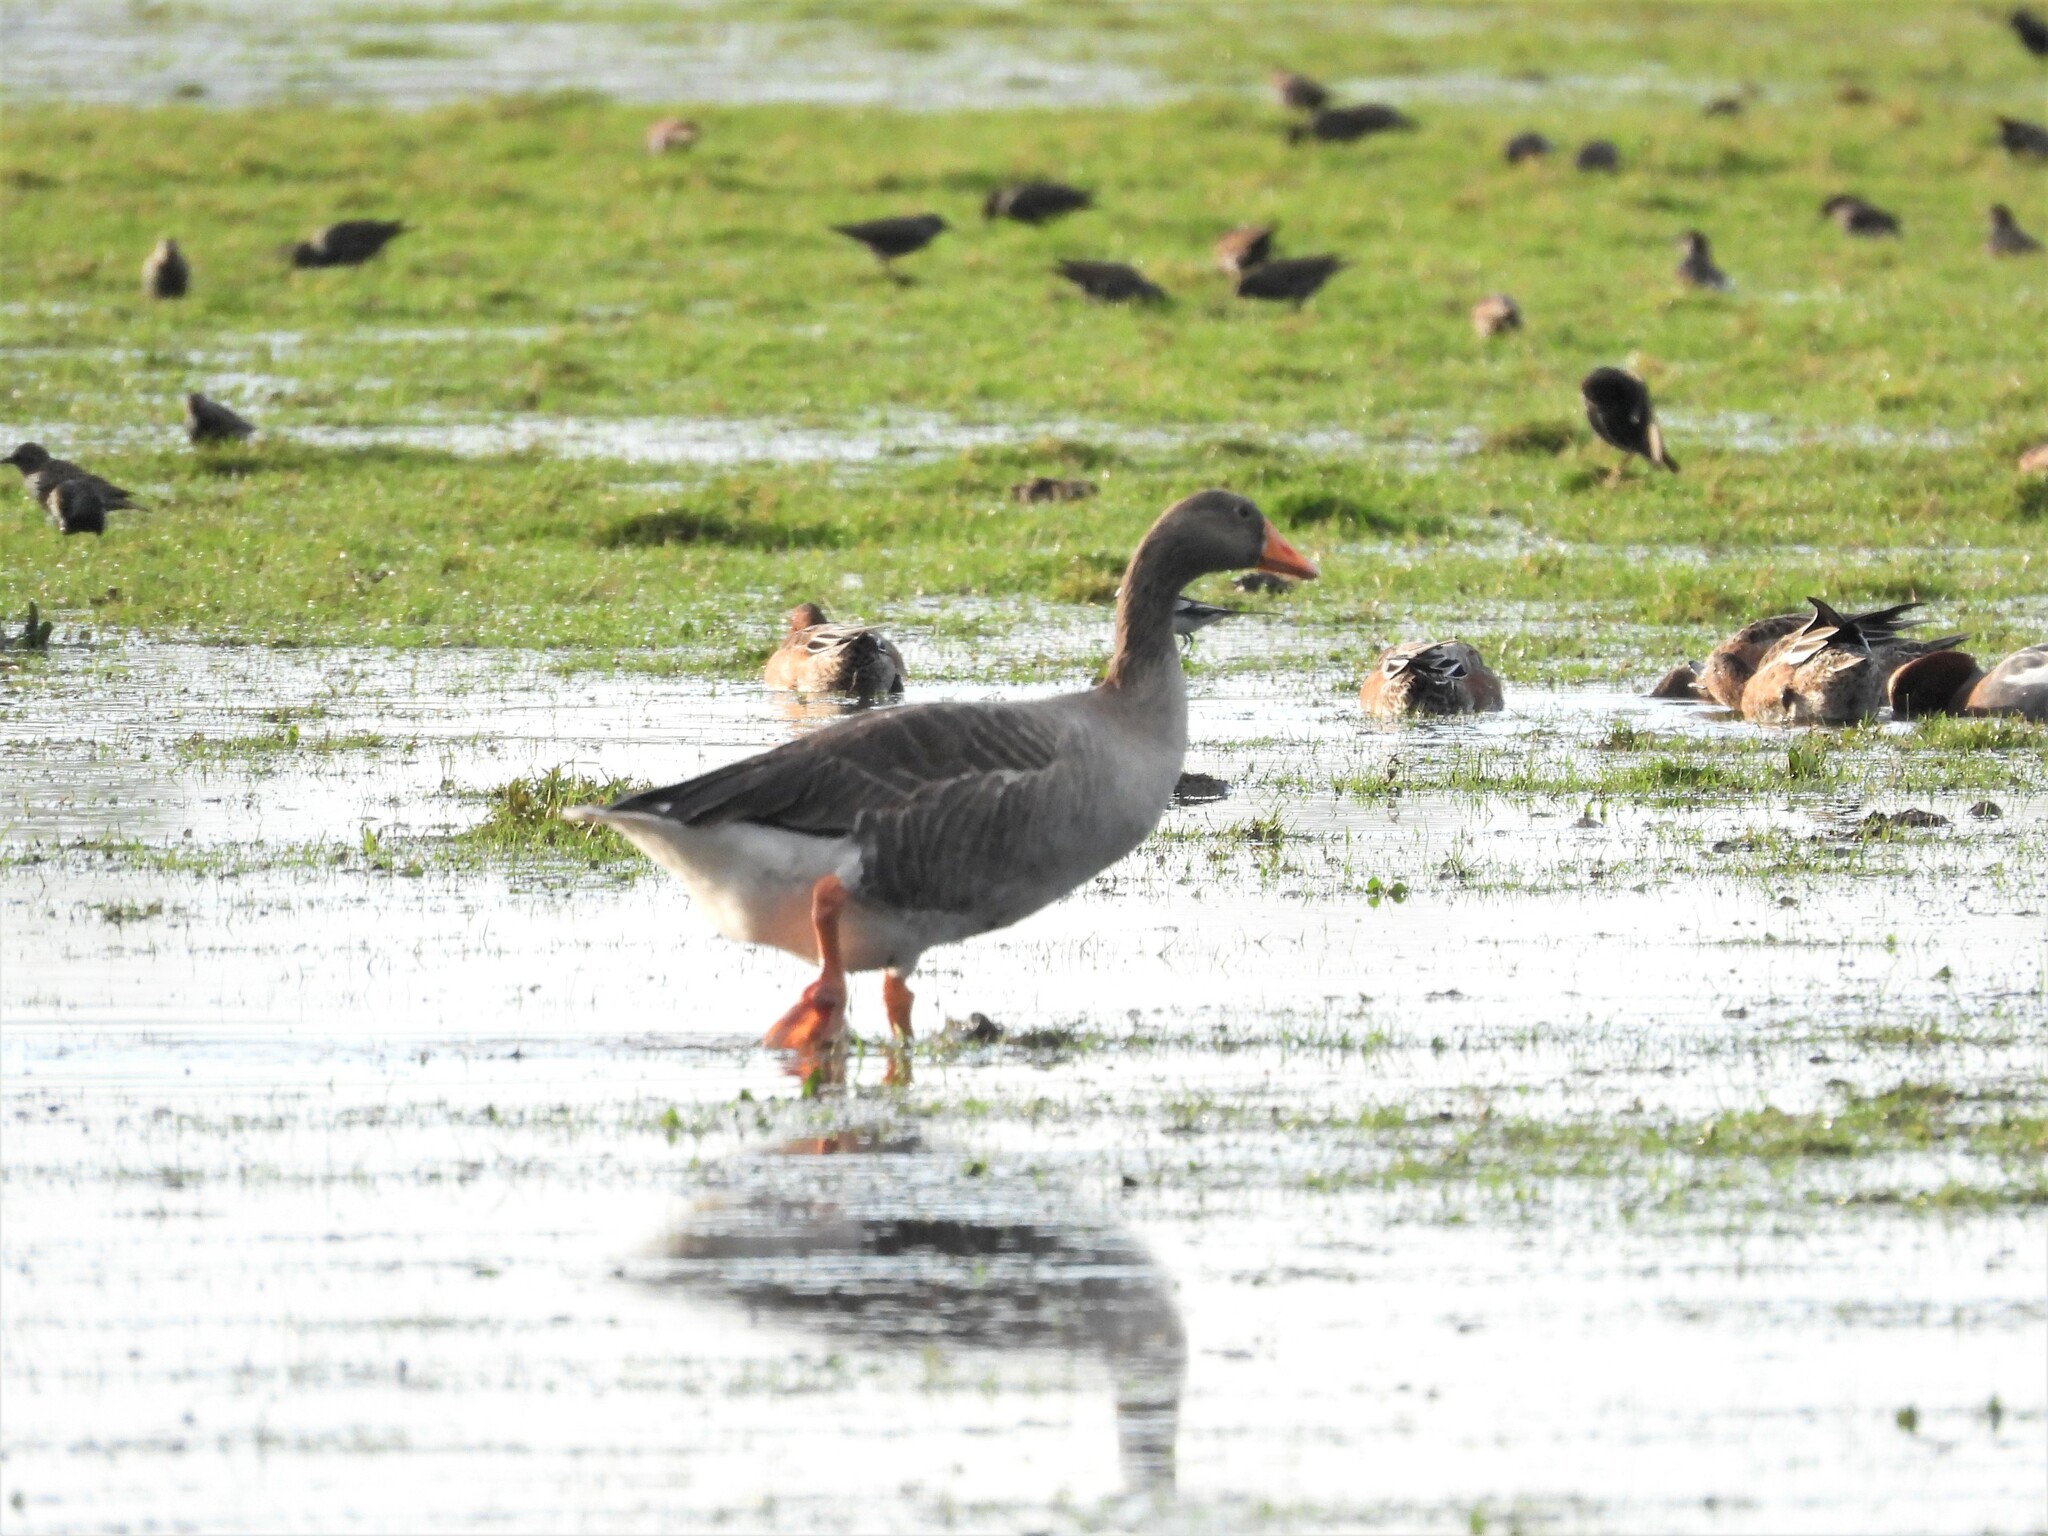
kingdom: Animalia
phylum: Chordata
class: Aves
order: Anseriformes
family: Anatidae
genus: Anser
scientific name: Anser anser
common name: Greylag goose
